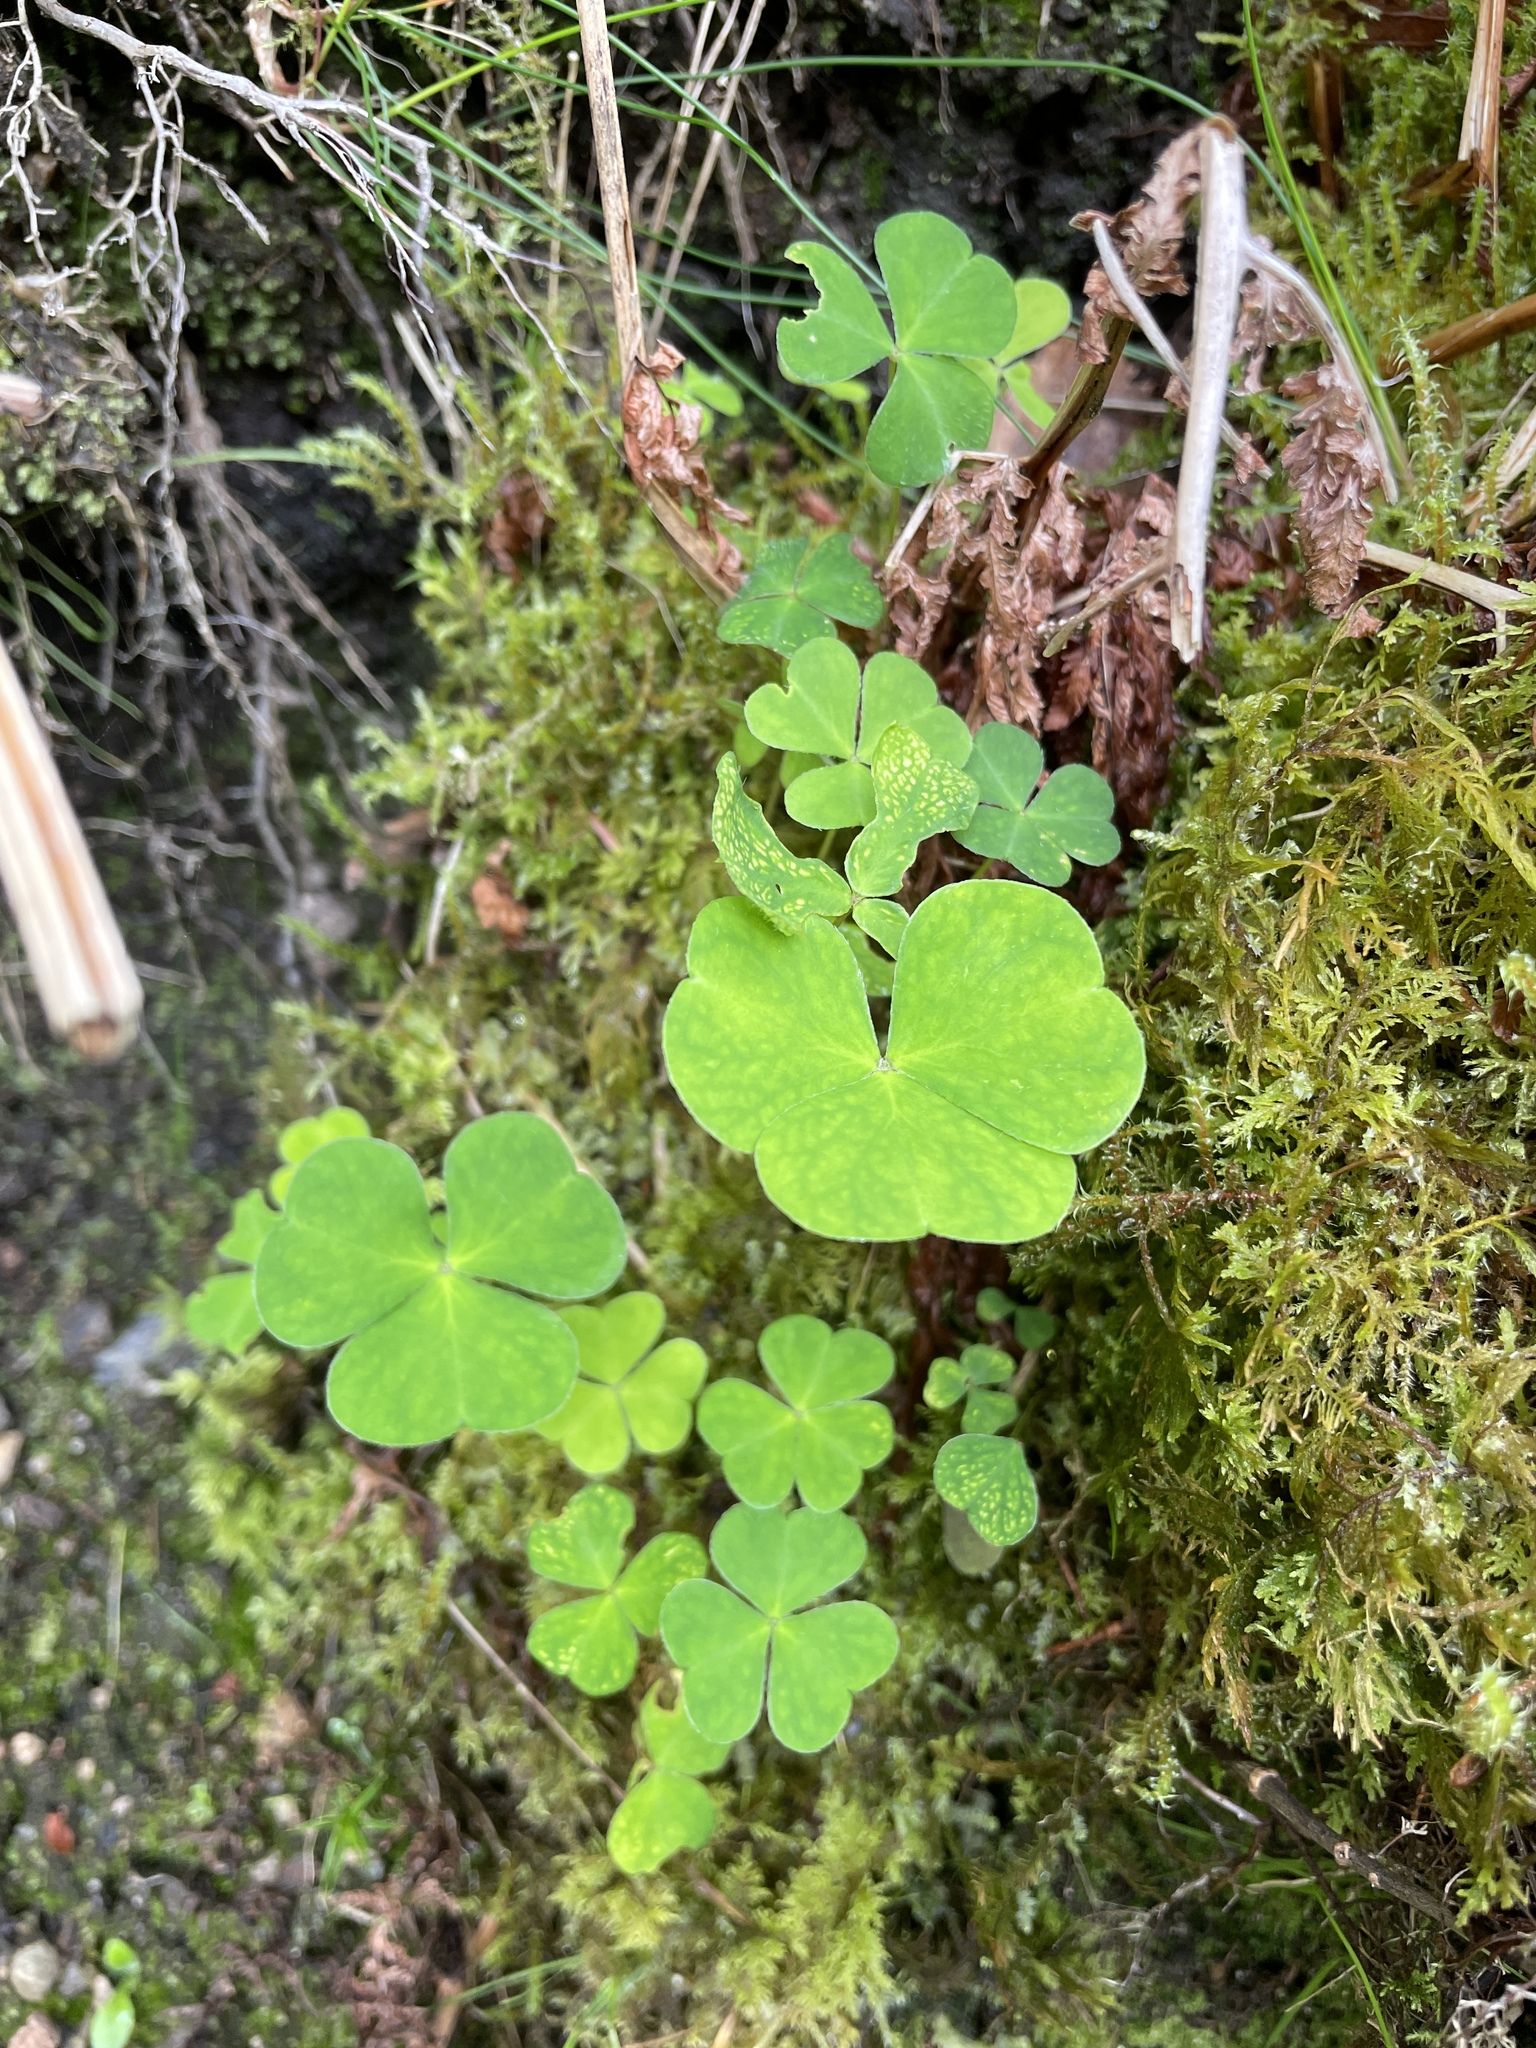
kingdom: Plantae
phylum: Tracheophyta
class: Magnoliopsida
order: Oxalidales
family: Oxalidaceae
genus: Oxalis
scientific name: Oxalis acetosella
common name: Wood-sorrel
